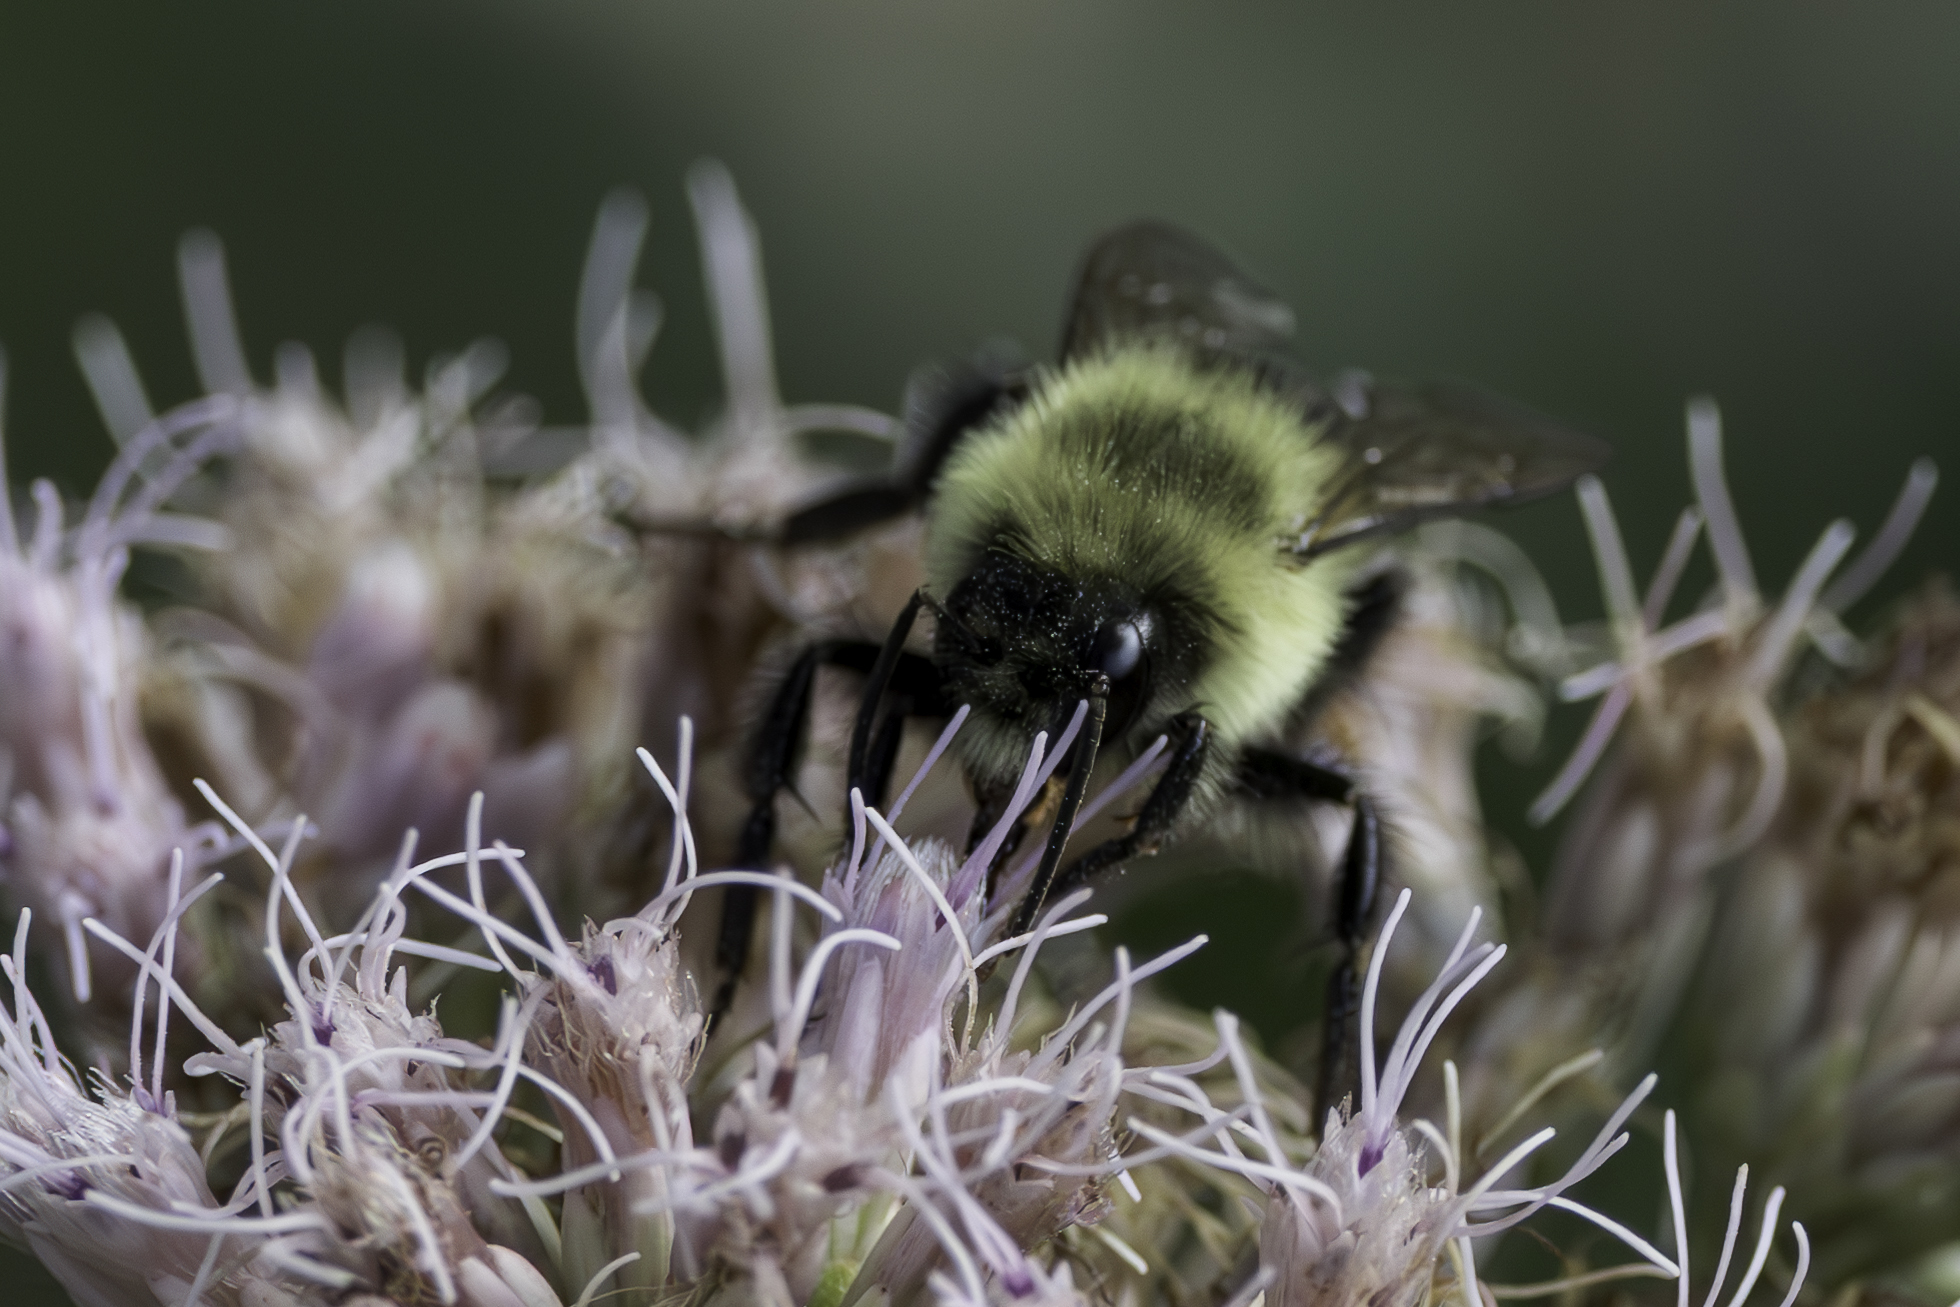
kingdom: Animalia
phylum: Arthropoda
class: Insecta
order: Hymenoptera
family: Apidae
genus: Bombus
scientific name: Bombus impatiens
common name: Common eastern bumble bee
